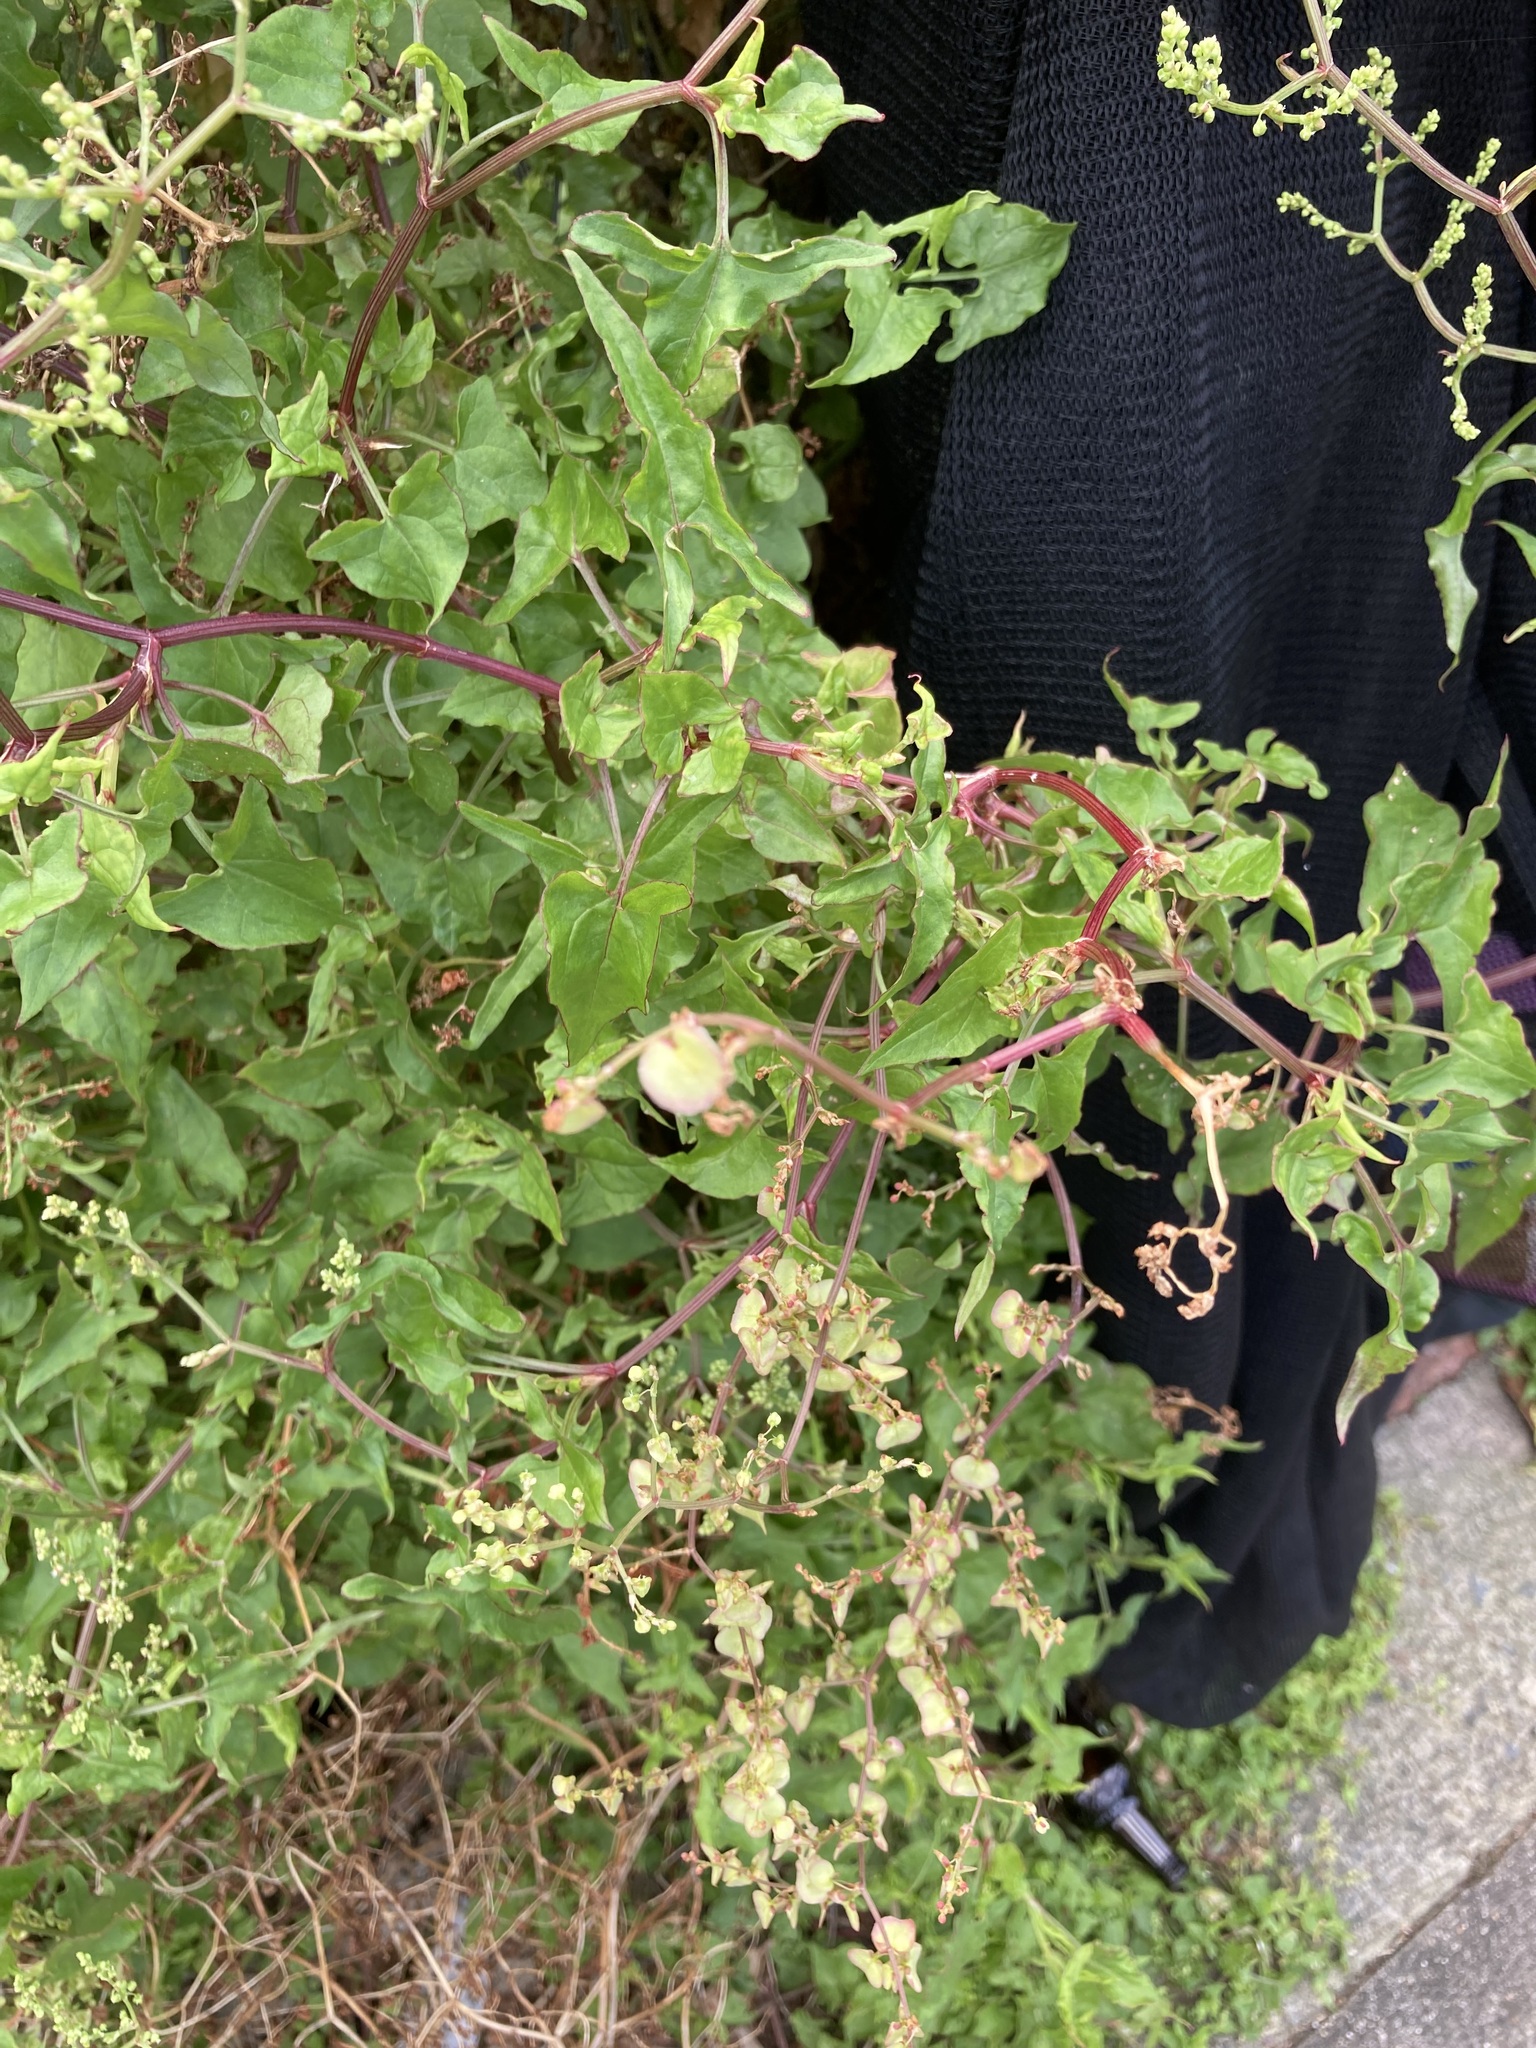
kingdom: Plantae
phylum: Tracheophyta
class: Magnoliopsida
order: Caryophyllales
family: Polygonaceae
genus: Rumex
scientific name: Rumex sagittatus
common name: Climbing dock
